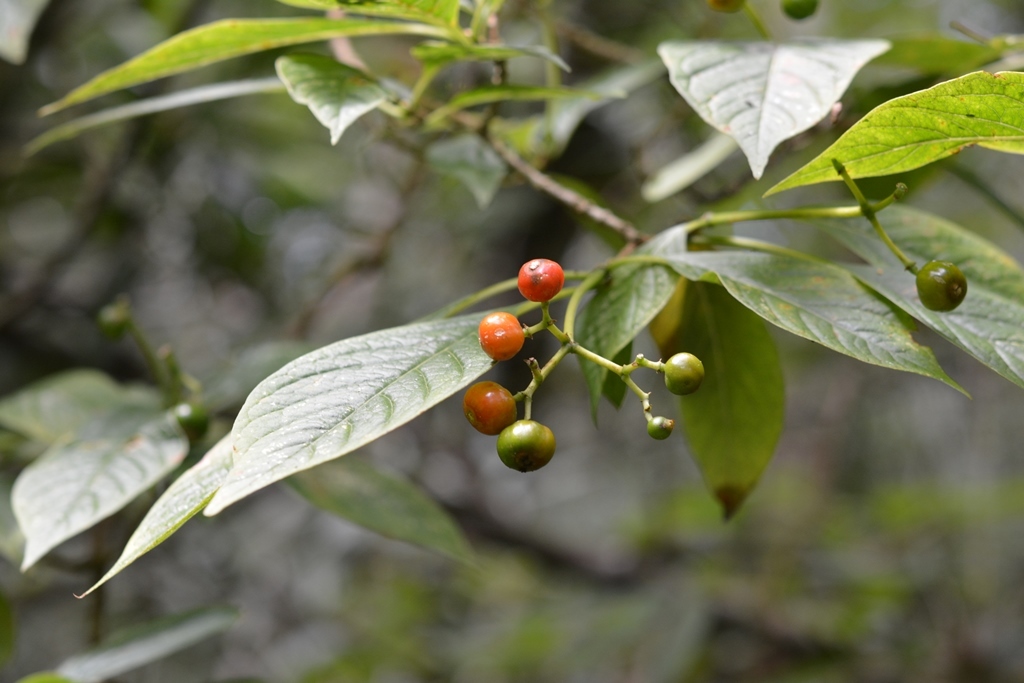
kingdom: Plantae
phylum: Tracheophyta
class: Magnoliopsida
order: Gentianales
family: Rubiaceae
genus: Coussarea
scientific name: Coussarea chiapensis
